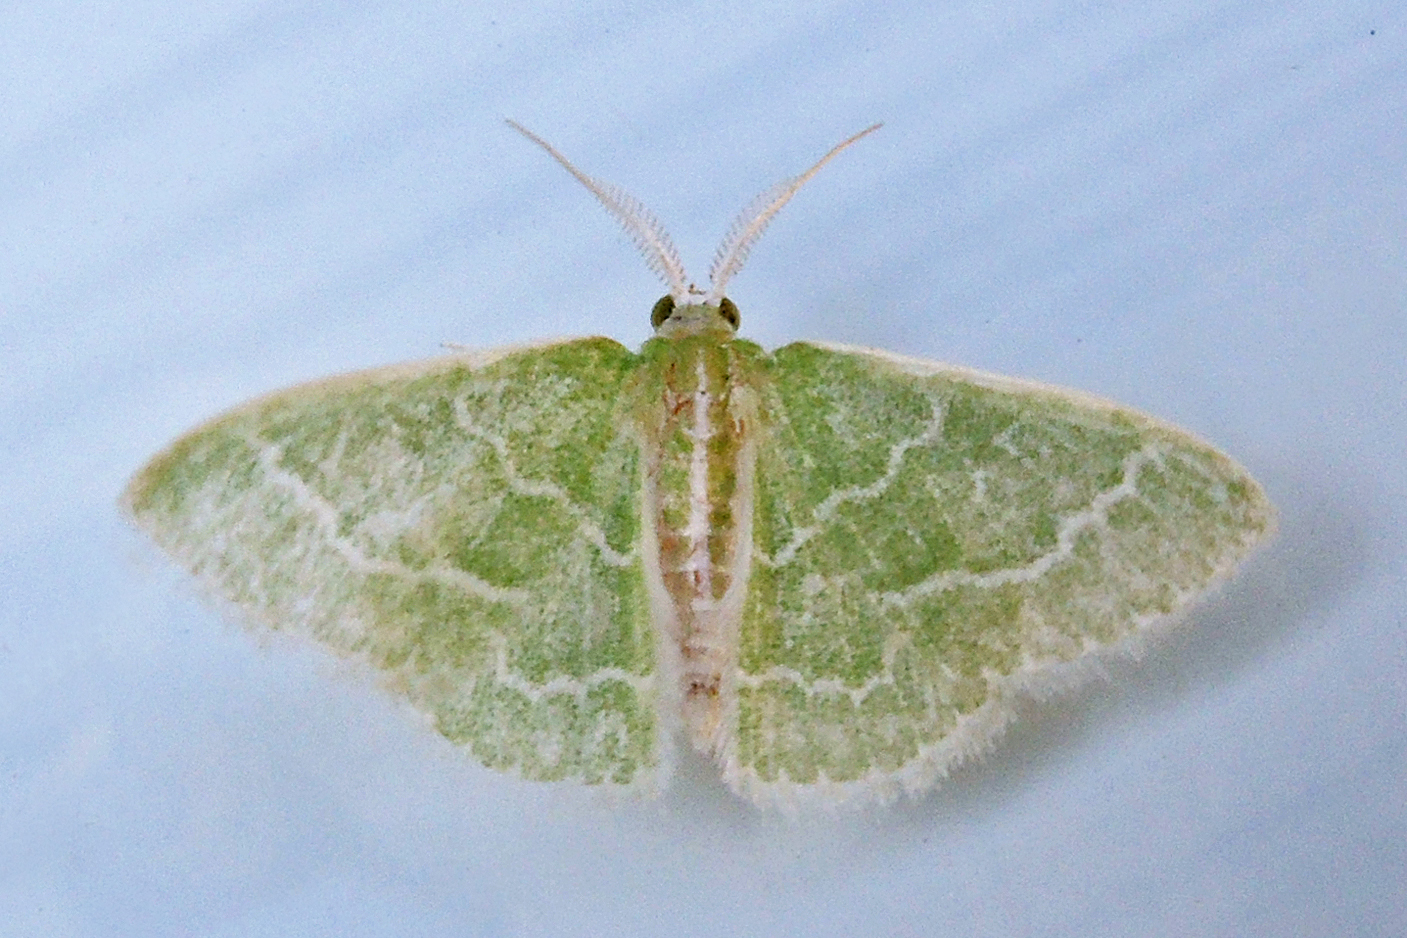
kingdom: Animalia
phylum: Arthropoda
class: Insecta
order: Lepidoptera
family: Geometridae
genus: Synchlora
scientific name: Synchlora aerata
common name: Wavy-lined emerald
